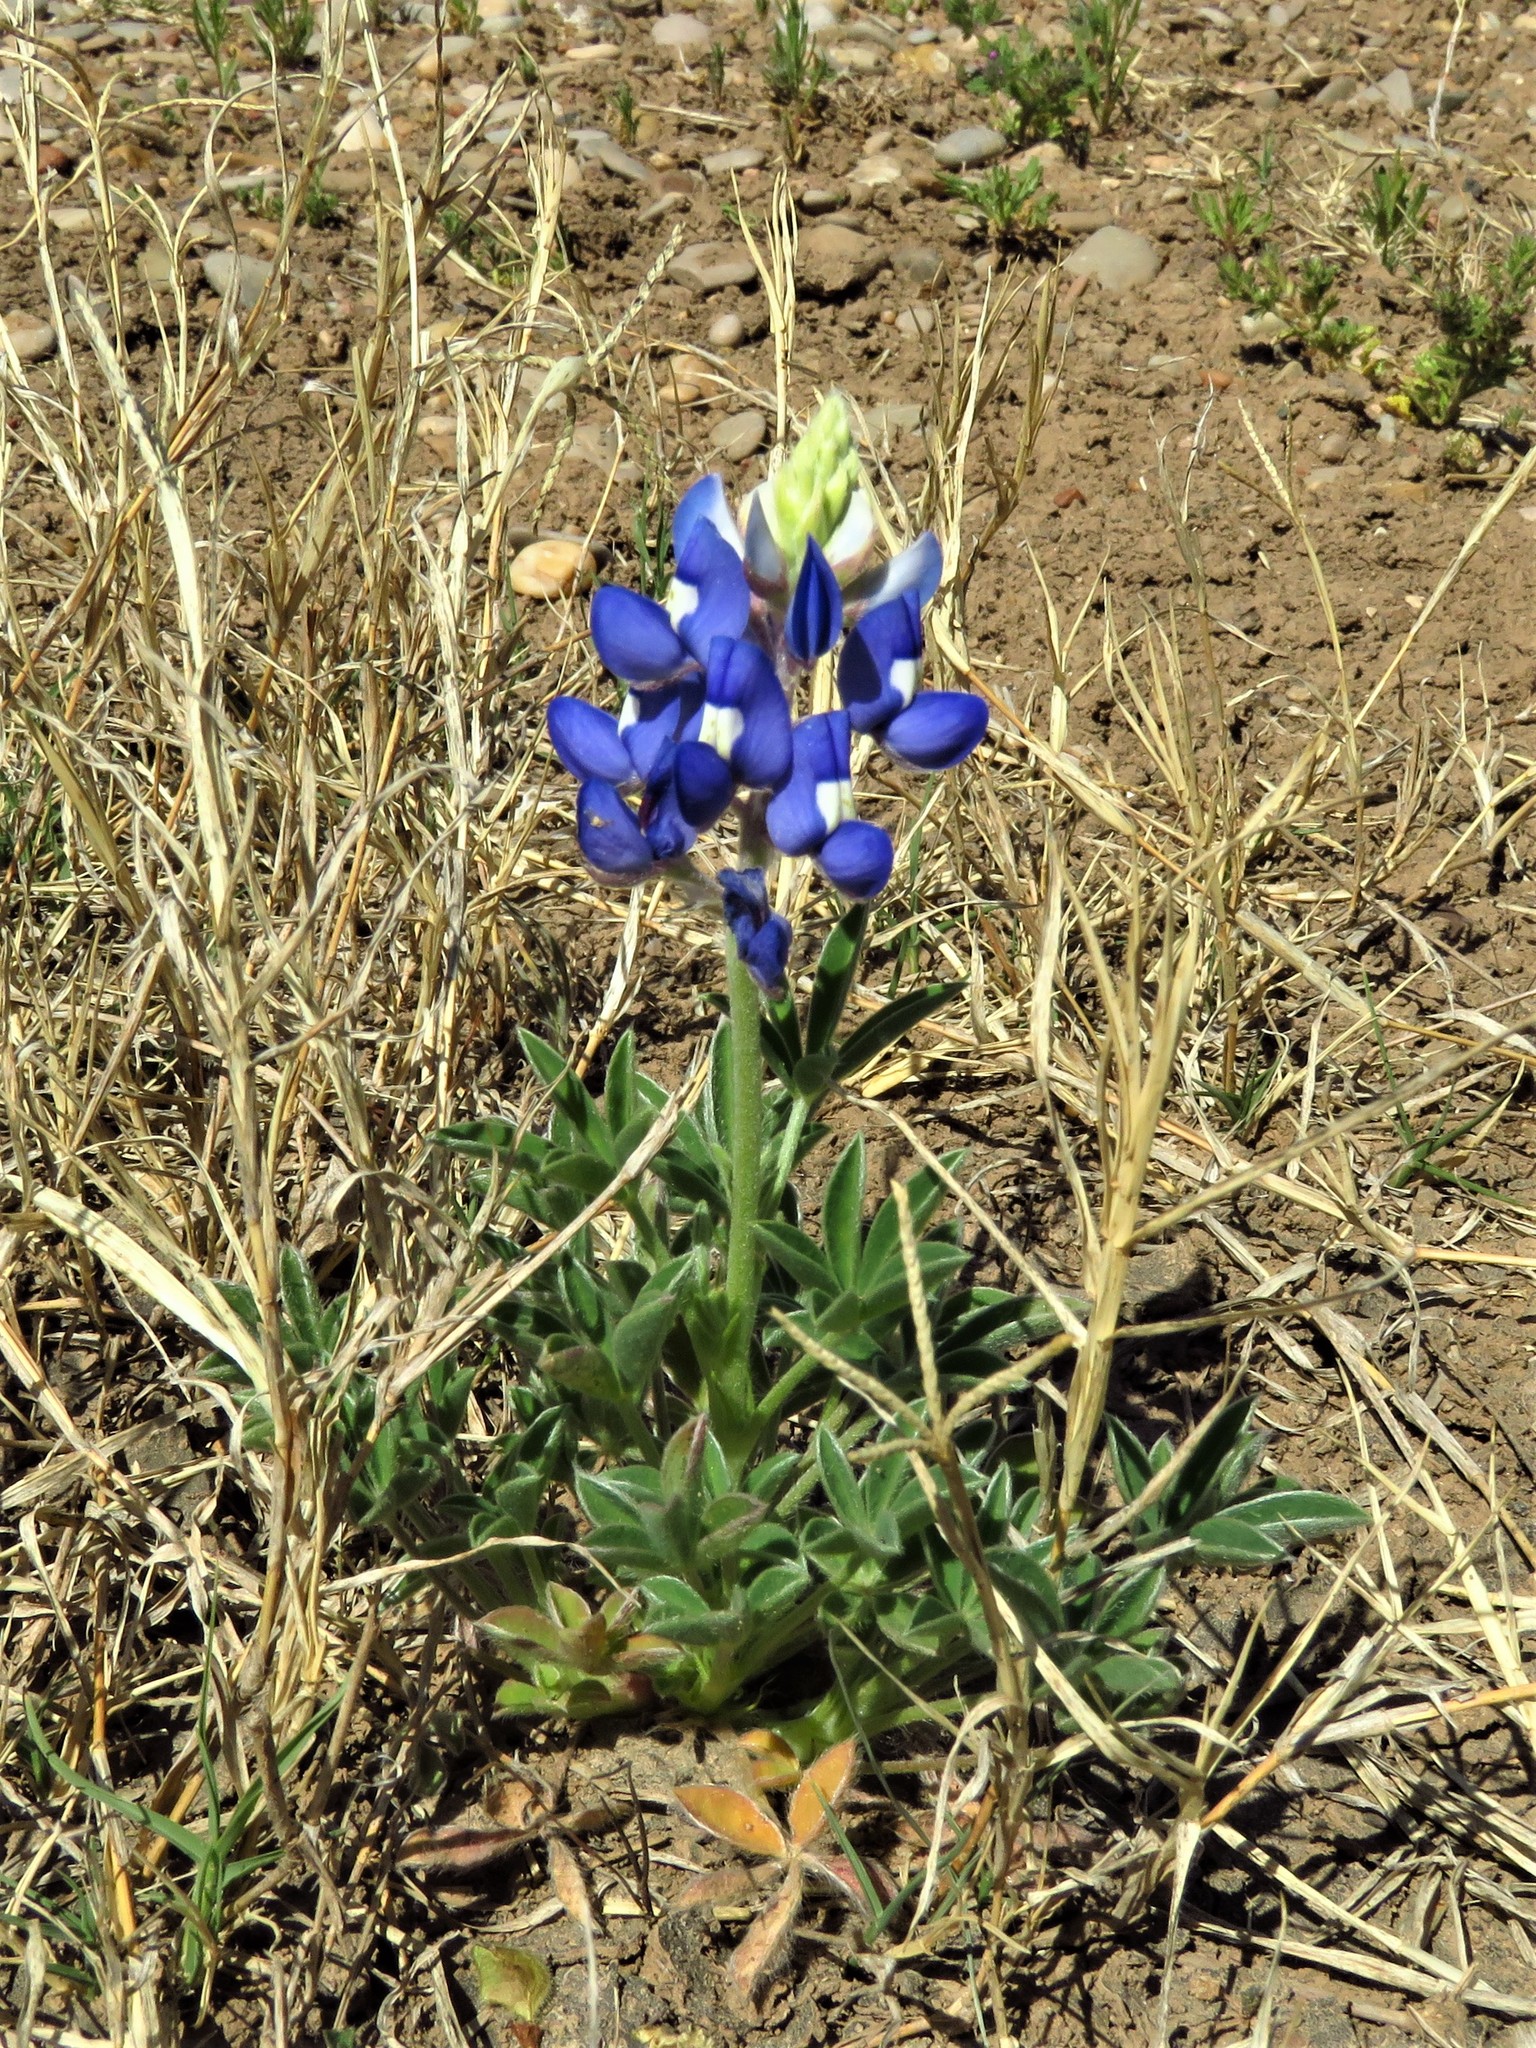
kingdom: Plantae
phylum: Tracheophyta
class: Magnoliopsida
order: Fabales
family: Fabaceae
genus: Lupinus
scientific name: Lupinus texensis
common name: Texas bluebonnet
